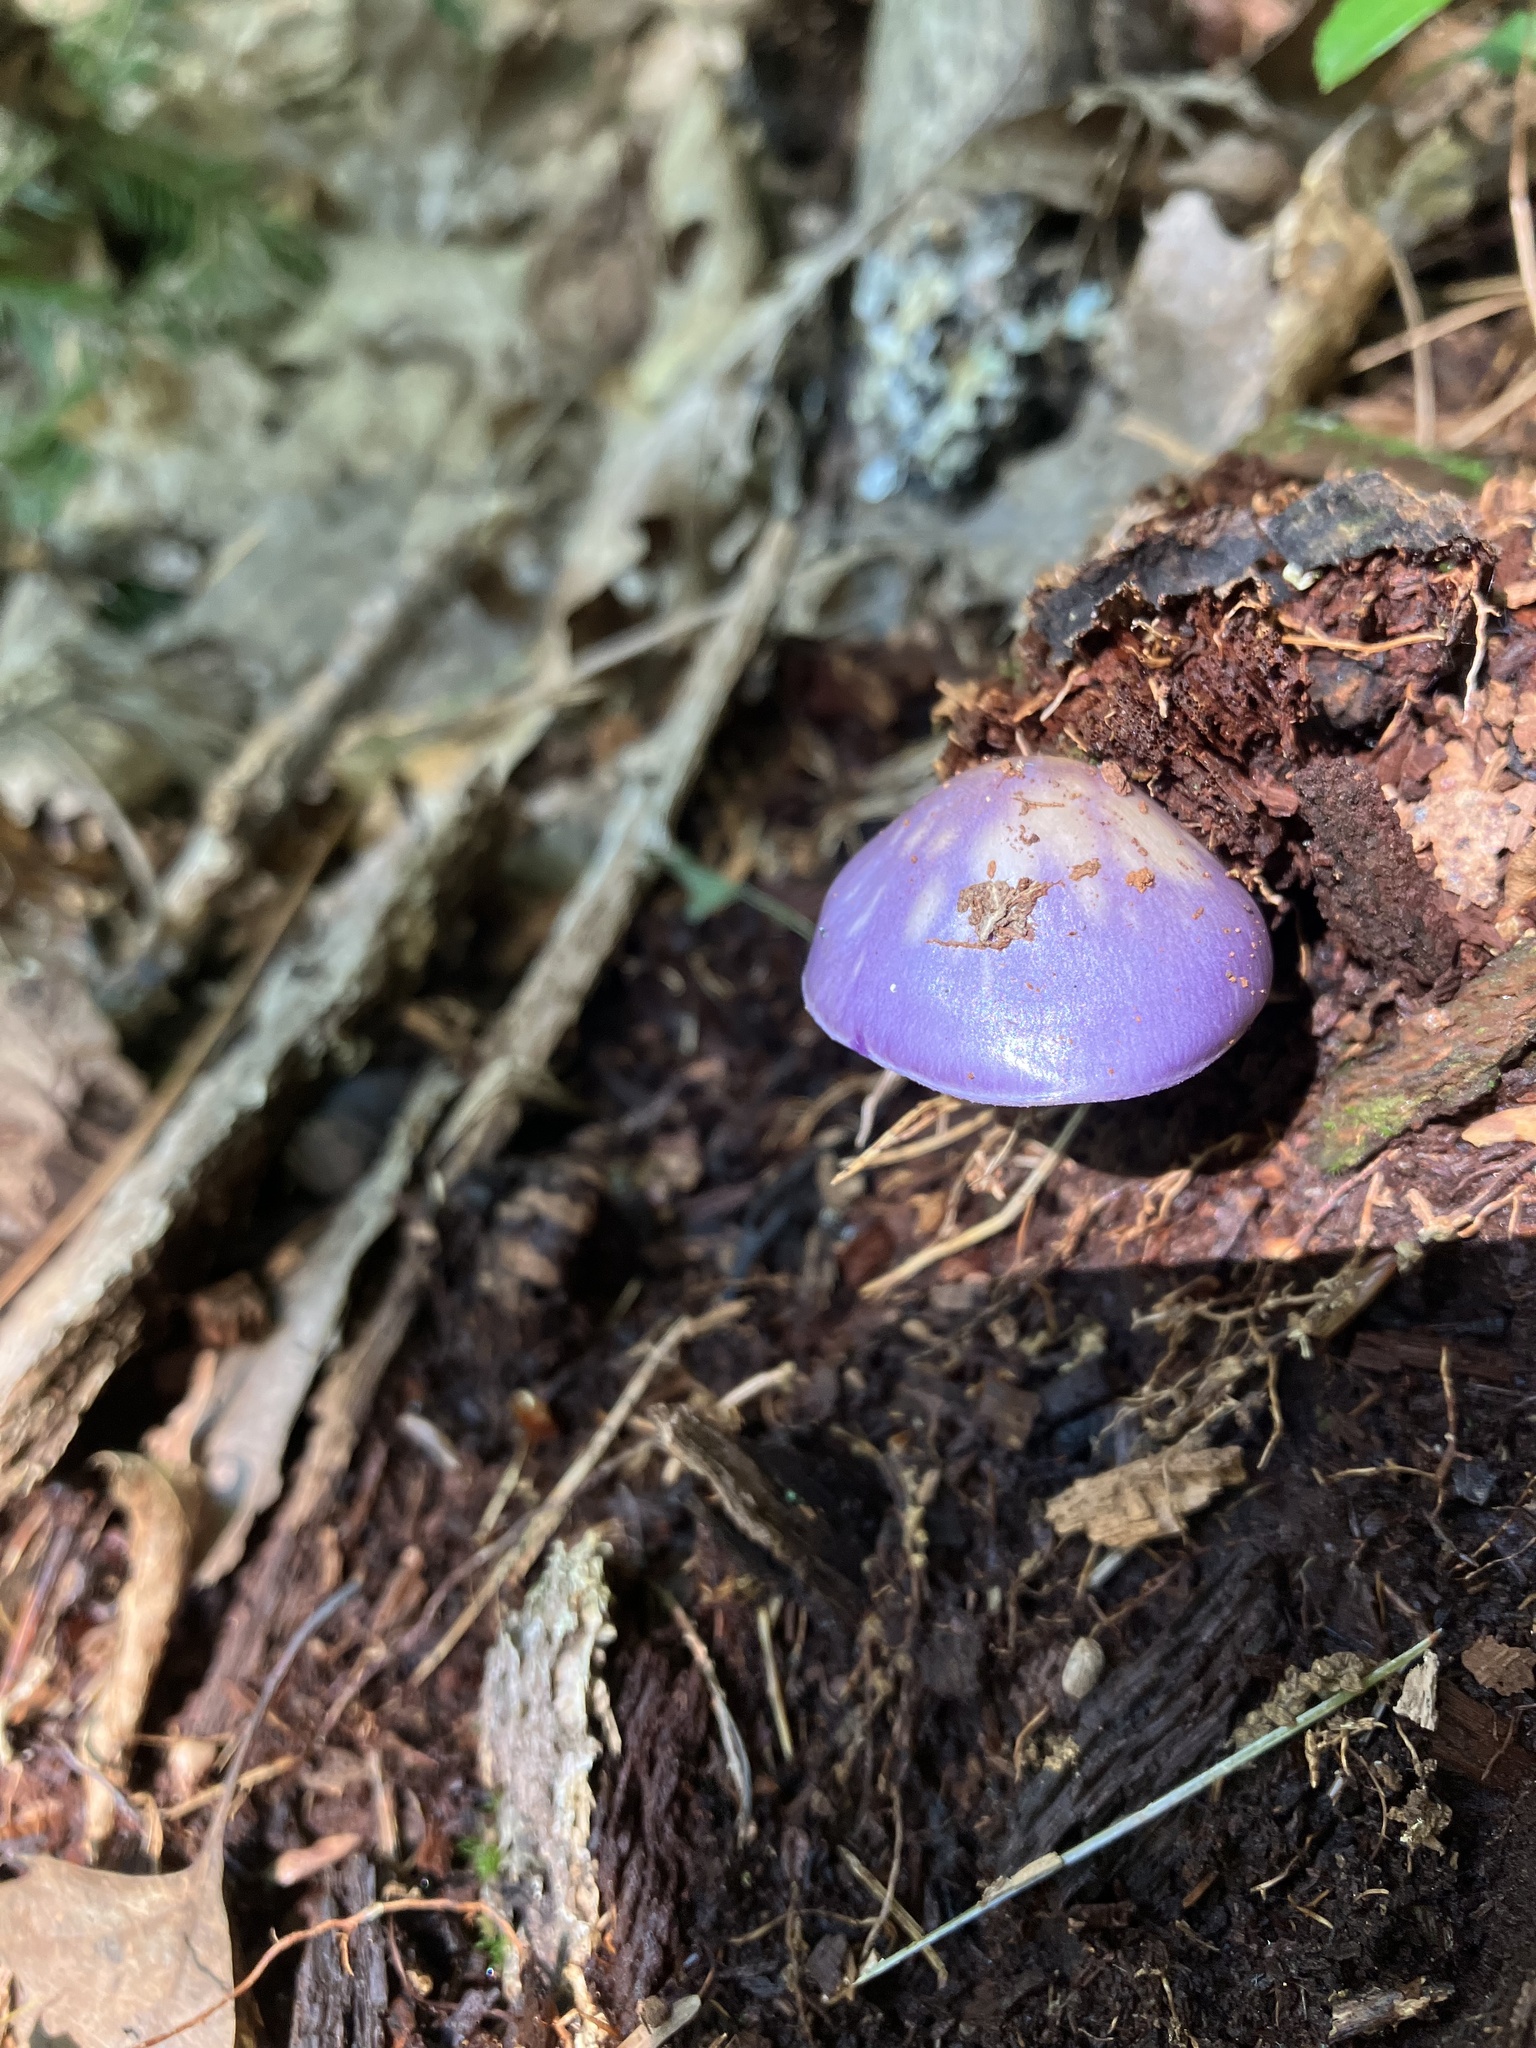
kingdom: Fungi
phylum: Basidiomycota
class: Agaricomycetes
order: Agaricales
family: Cortinariaceae
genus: Cortinarius
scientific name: Cortinarius iodes
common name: Viscid violet cort
